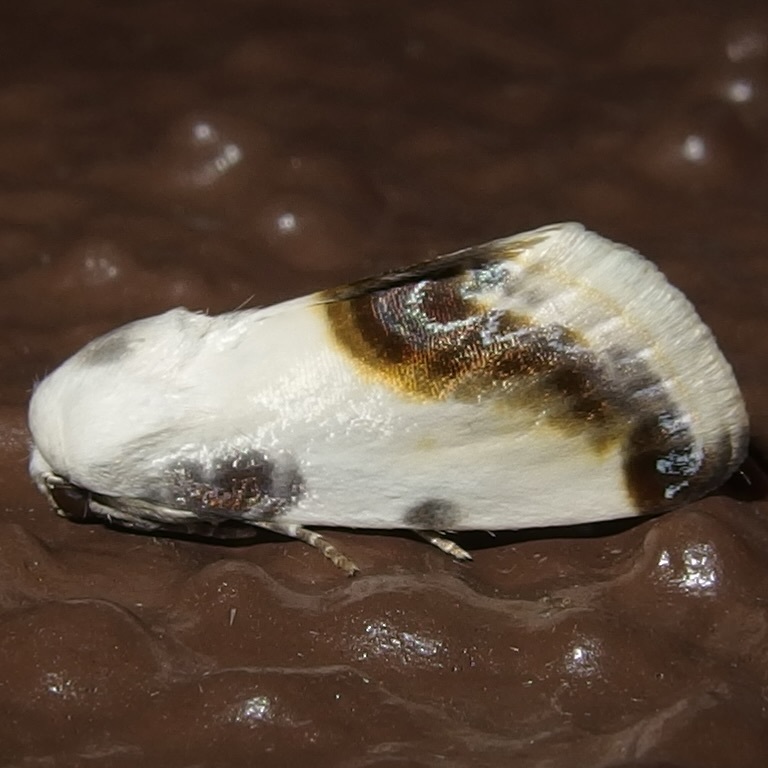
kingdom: Animalia
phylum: Arthropoda
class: Insecta
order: Lepidoptera
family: Noctuidae
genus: Acontia
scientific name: Acontia chea
